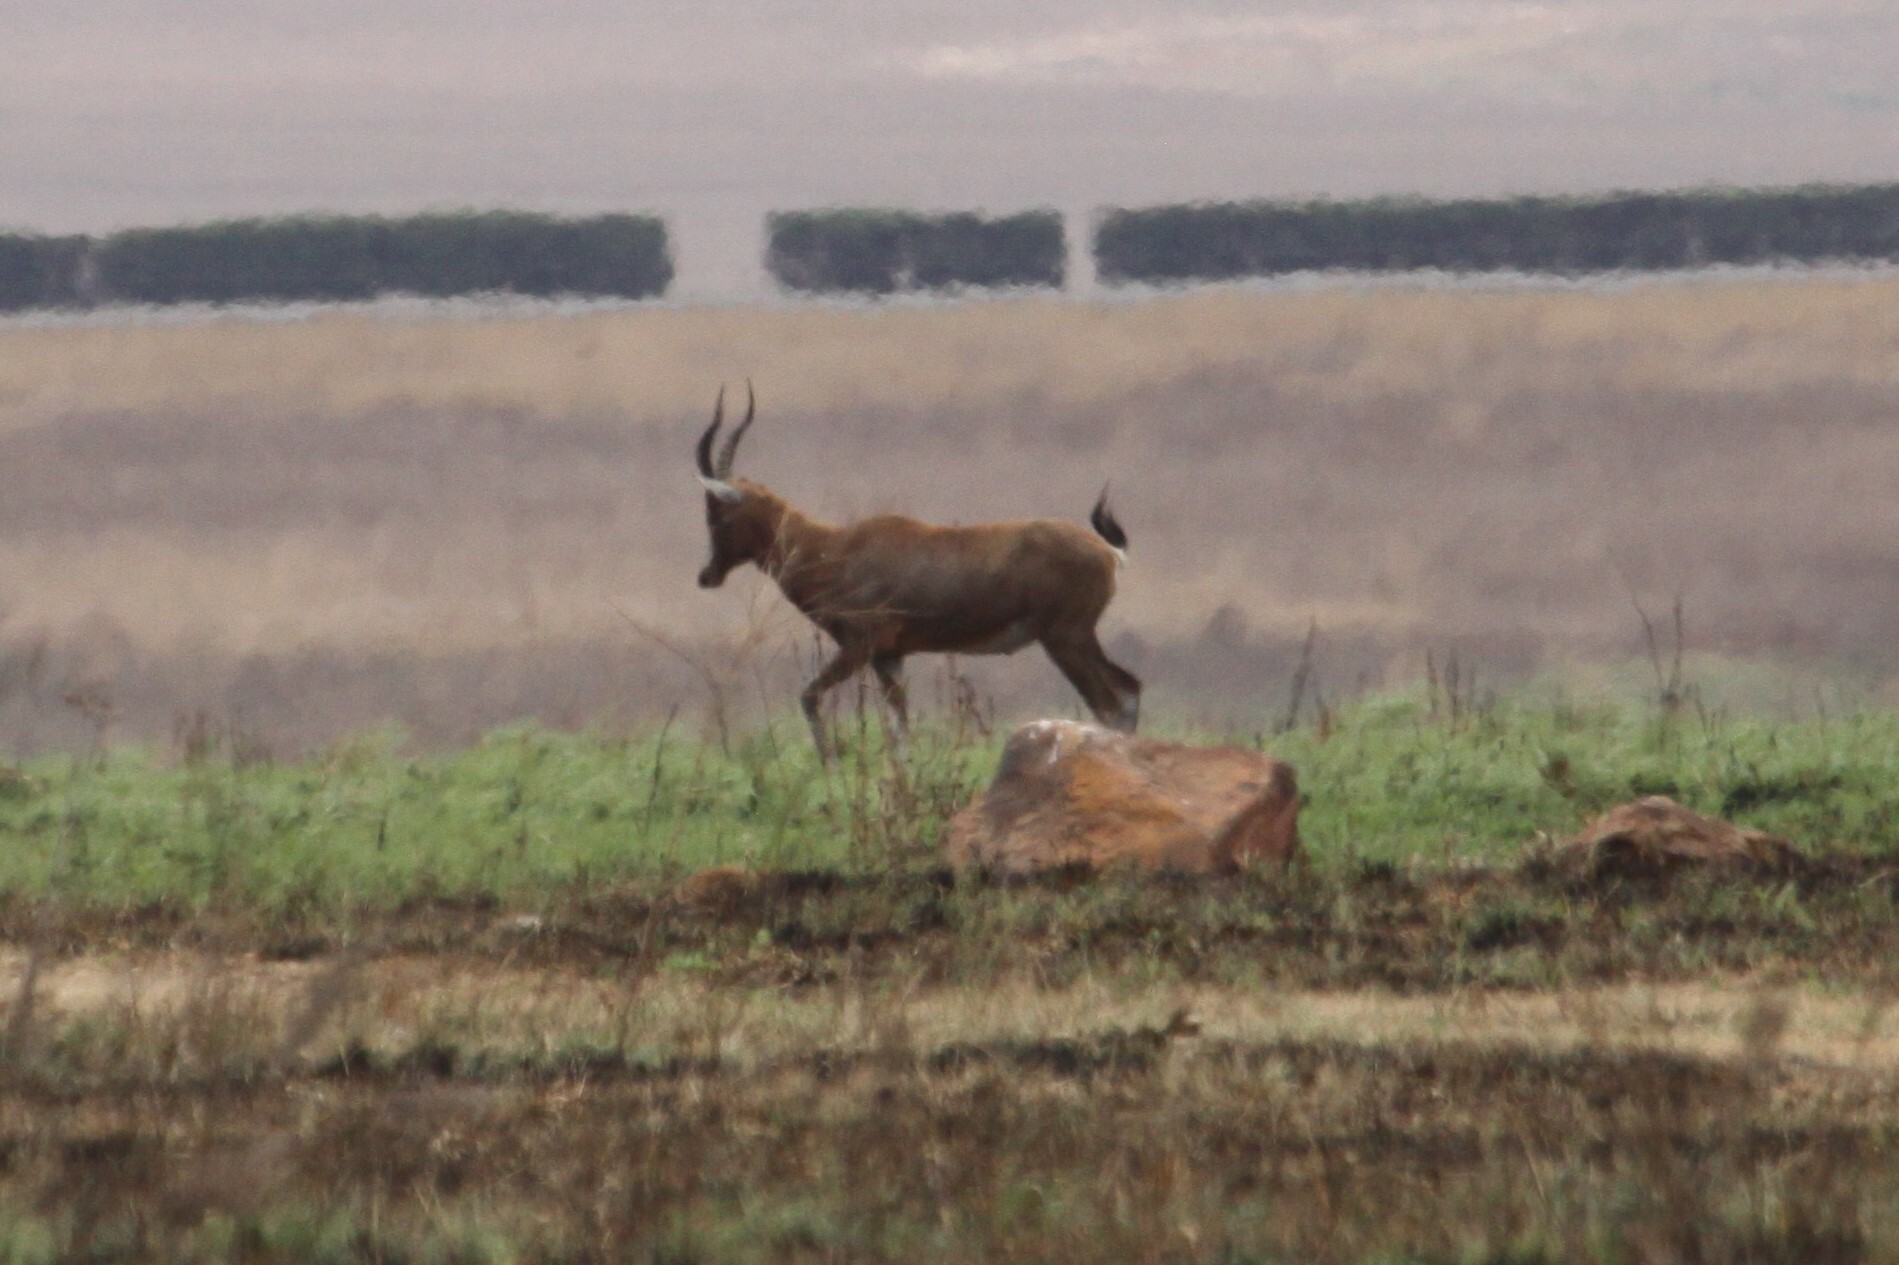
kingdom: Animalia
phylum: Chordata
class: Mammalia
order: Artiodactyla
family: Bovidae
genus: Damaliscus
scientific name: Damaliscus pygargus
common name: Bontebok
